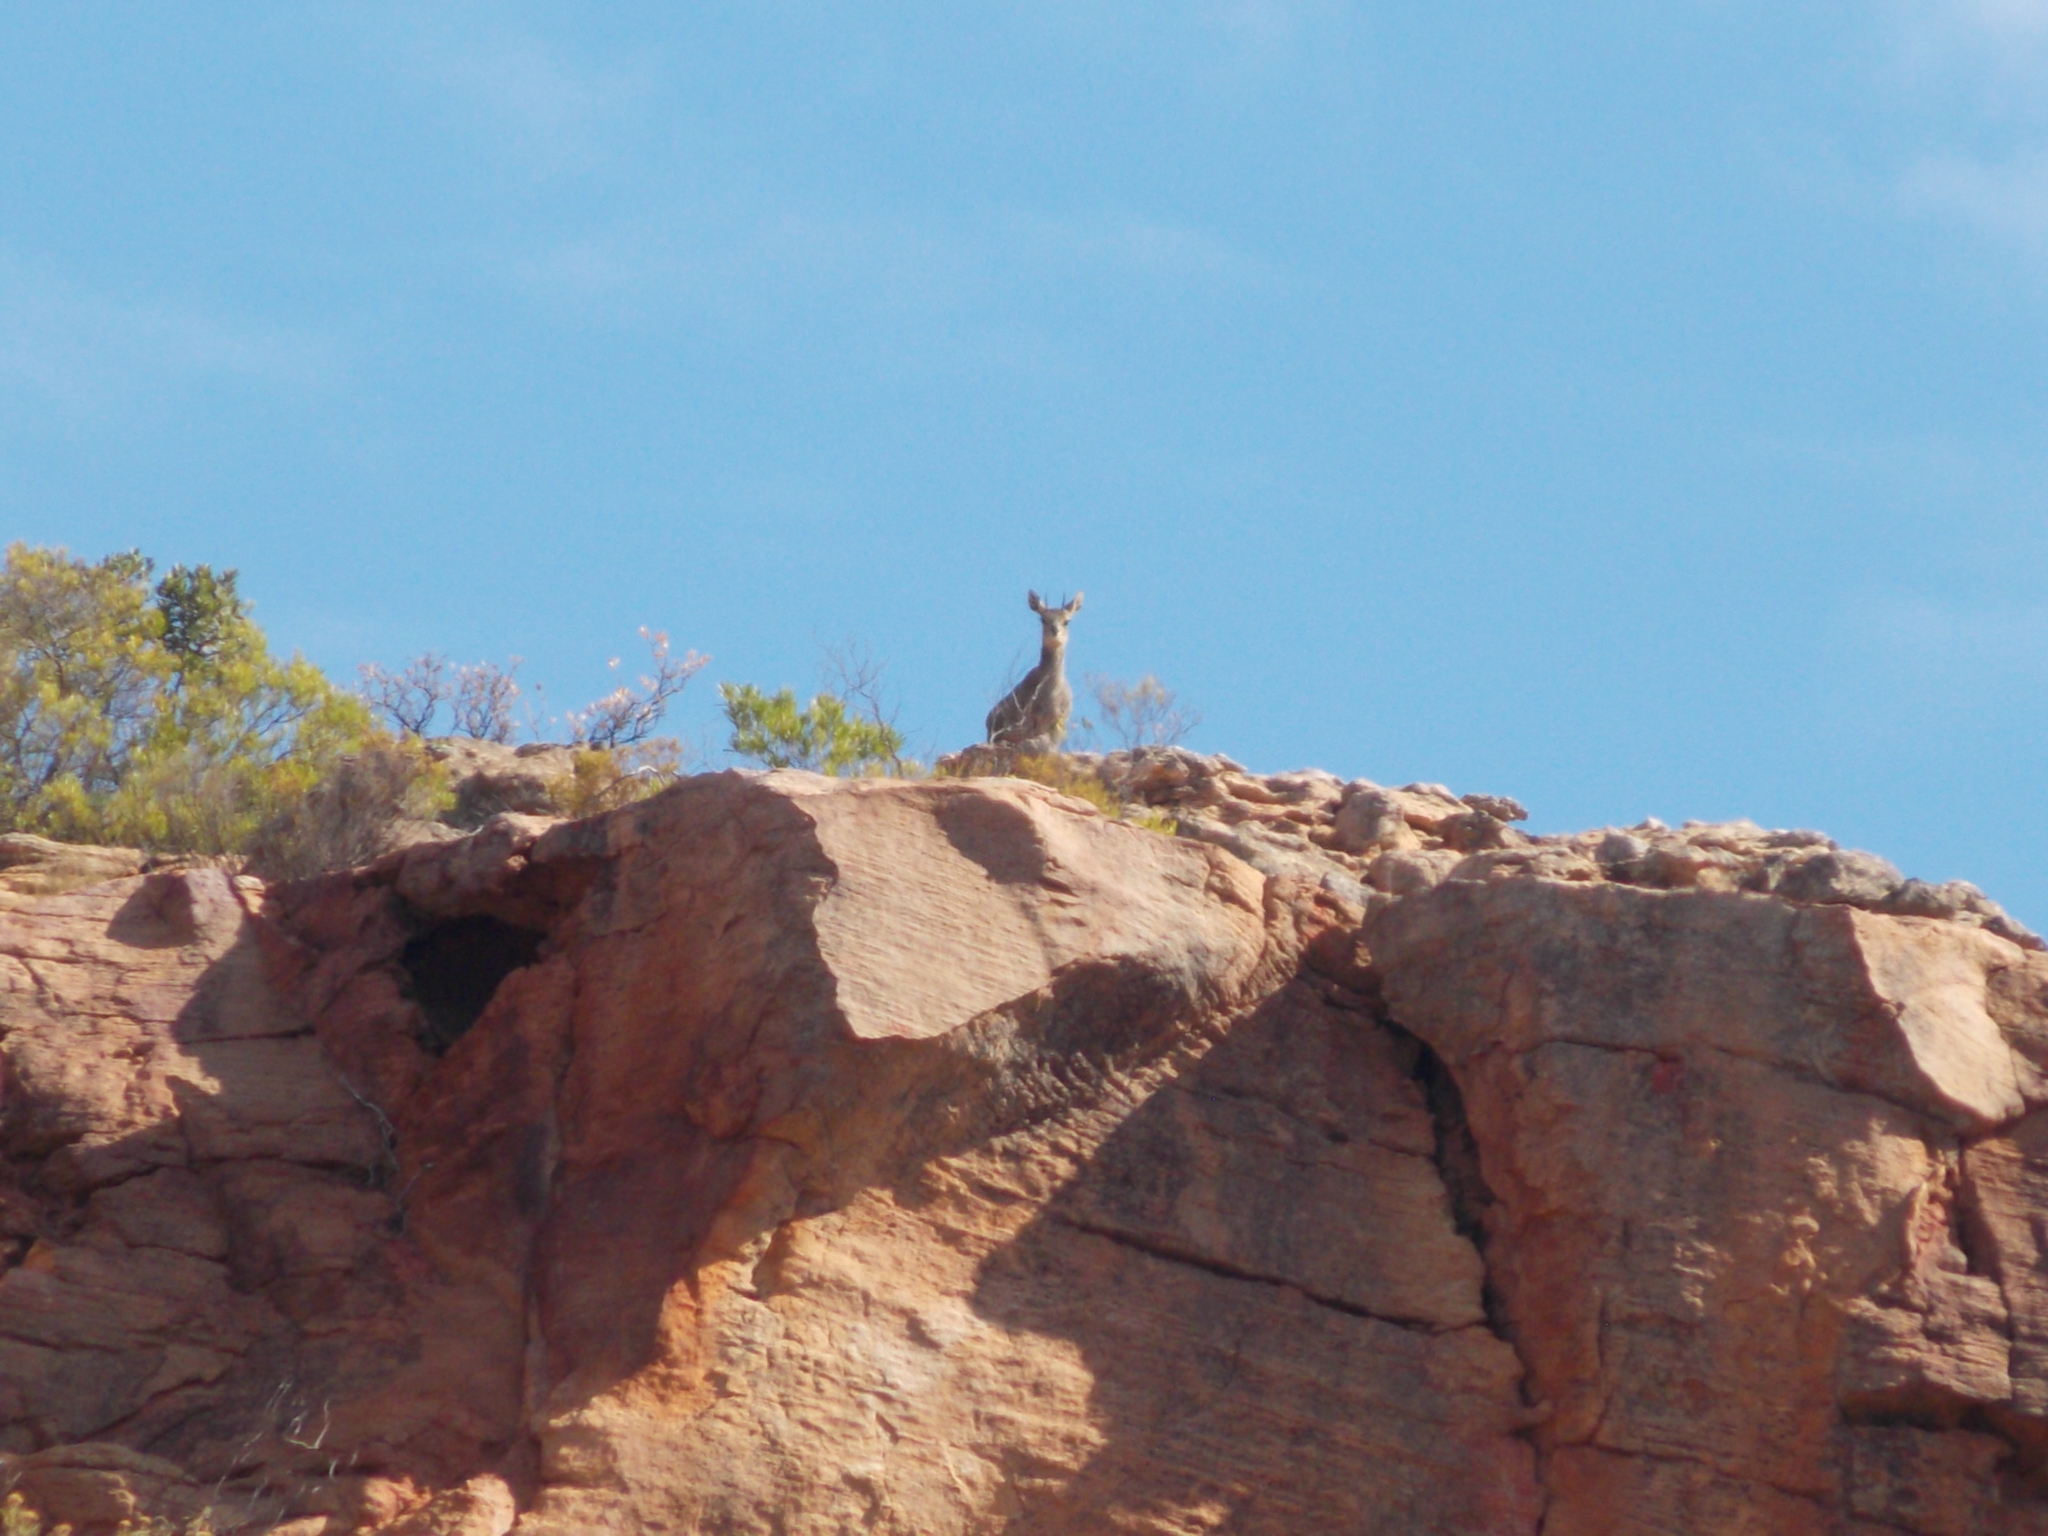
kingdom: Animalia
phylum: Chordata
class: Mammalia
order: Artiodactyla
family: Bovidae
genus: Oreotragus
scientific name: Oreotragus oreotragus
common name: Klipspringer
